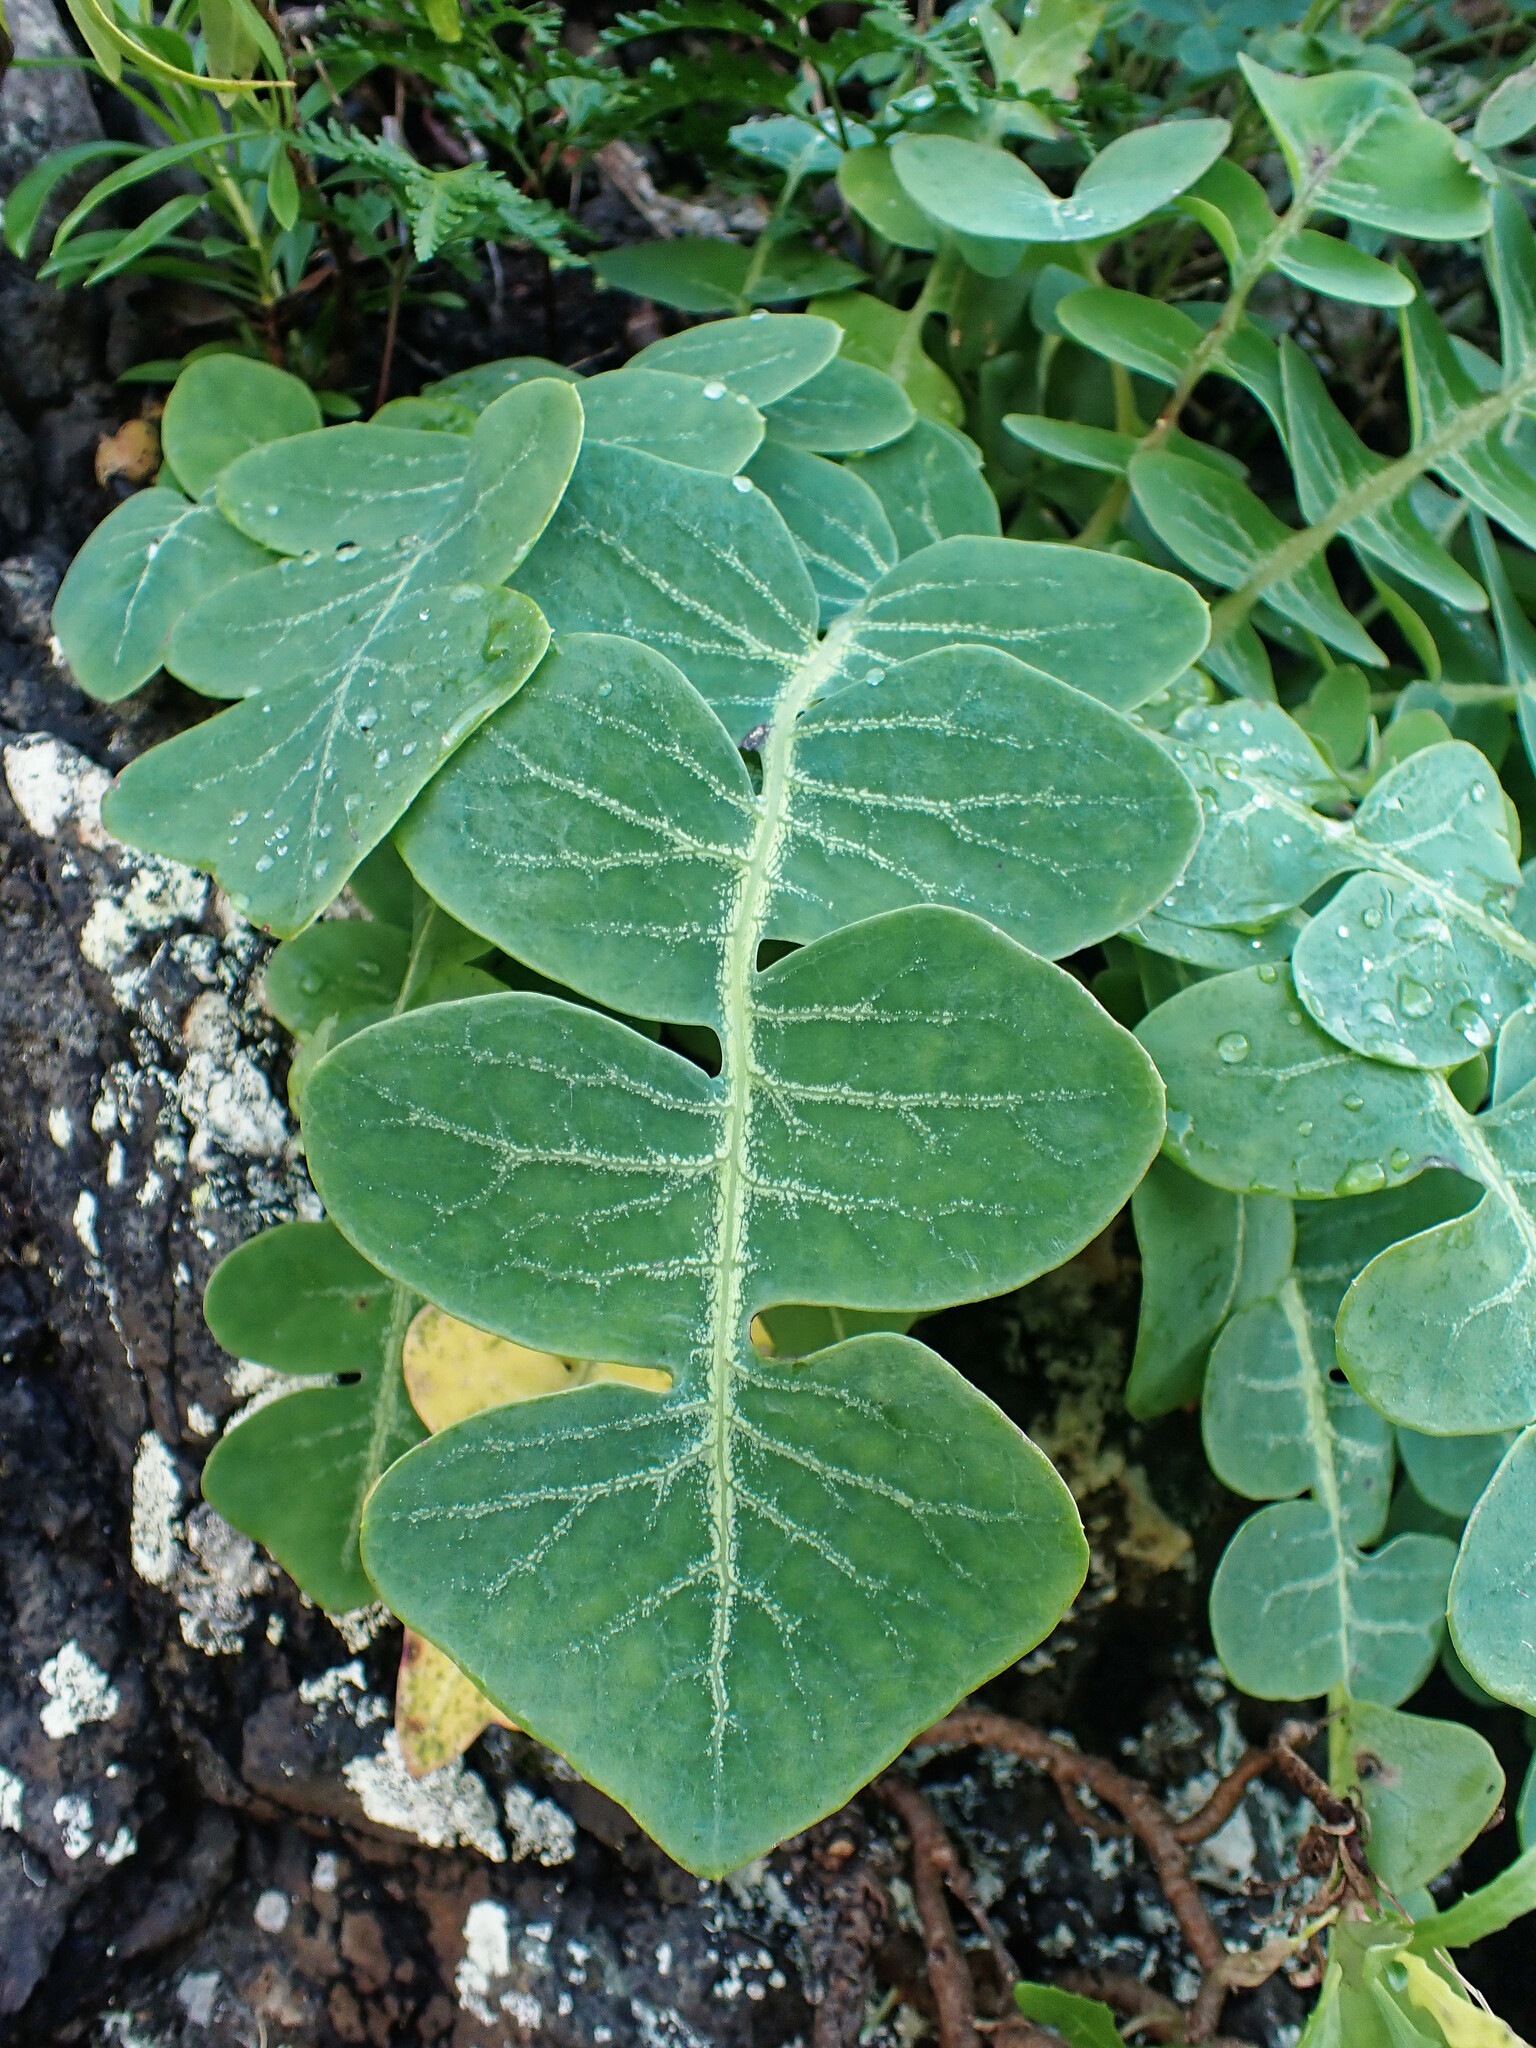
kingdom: Plantae
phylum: Tracheophyta
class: Magnoliopsida
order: Asterales
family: Asteraceae
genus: Sonchus
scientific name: Sonchus latifolius
